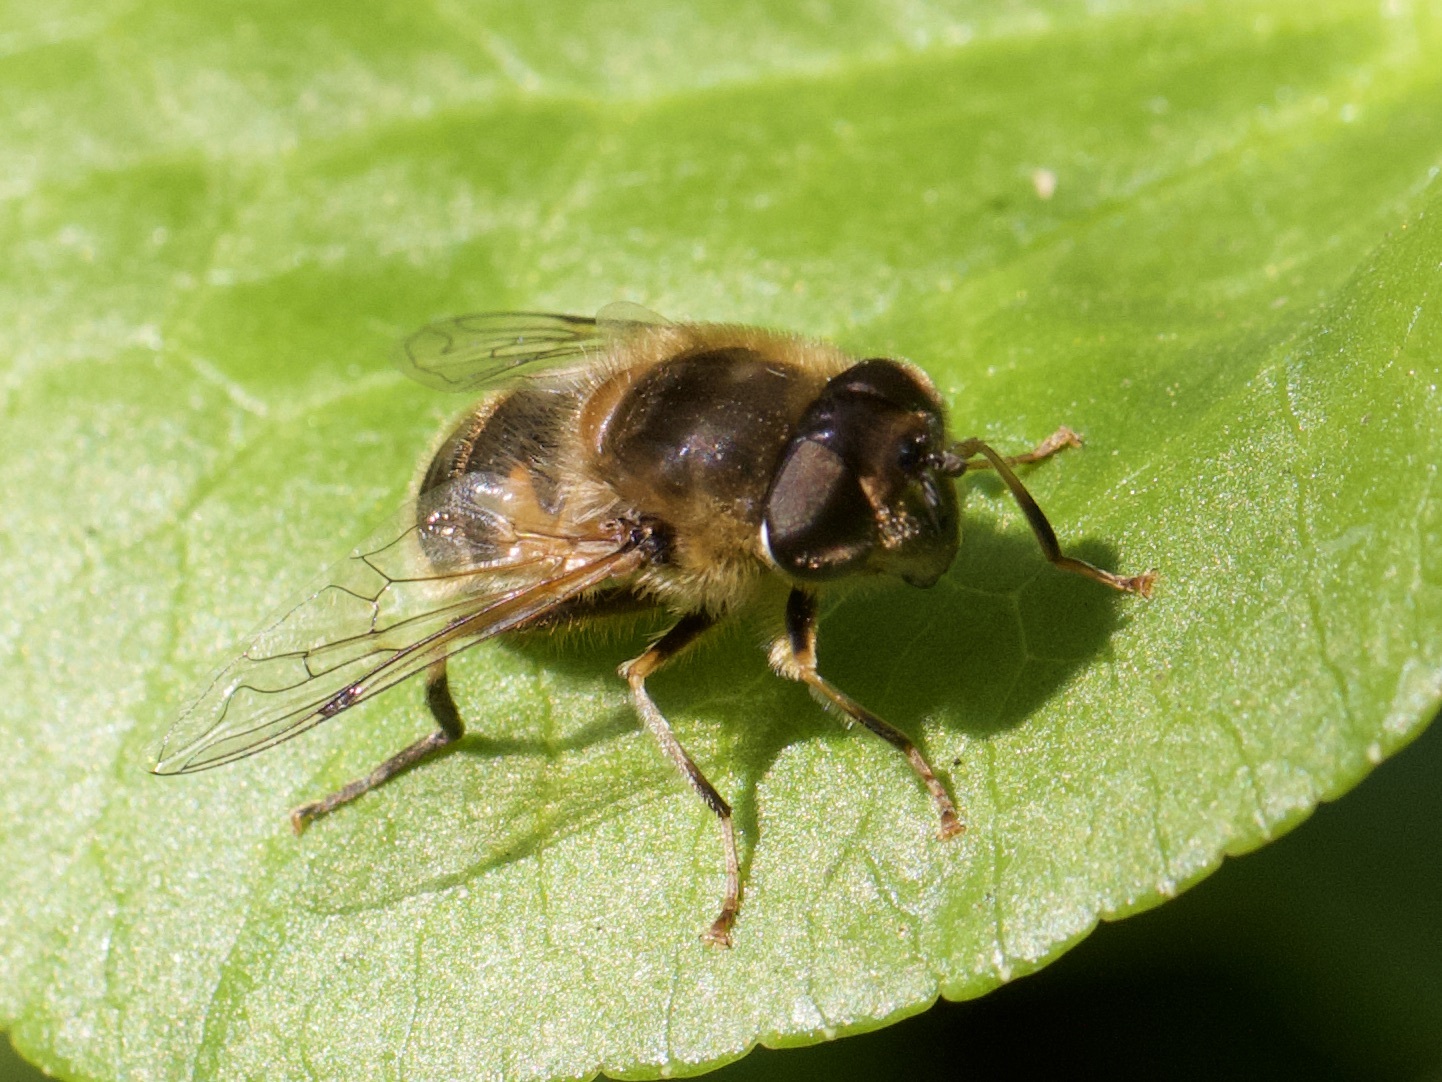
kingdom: Animalia
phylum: Arthropoda
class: Insecta
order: Diptera
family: Syrphidae
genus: Eristalis
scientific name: Eristalis pertinax
